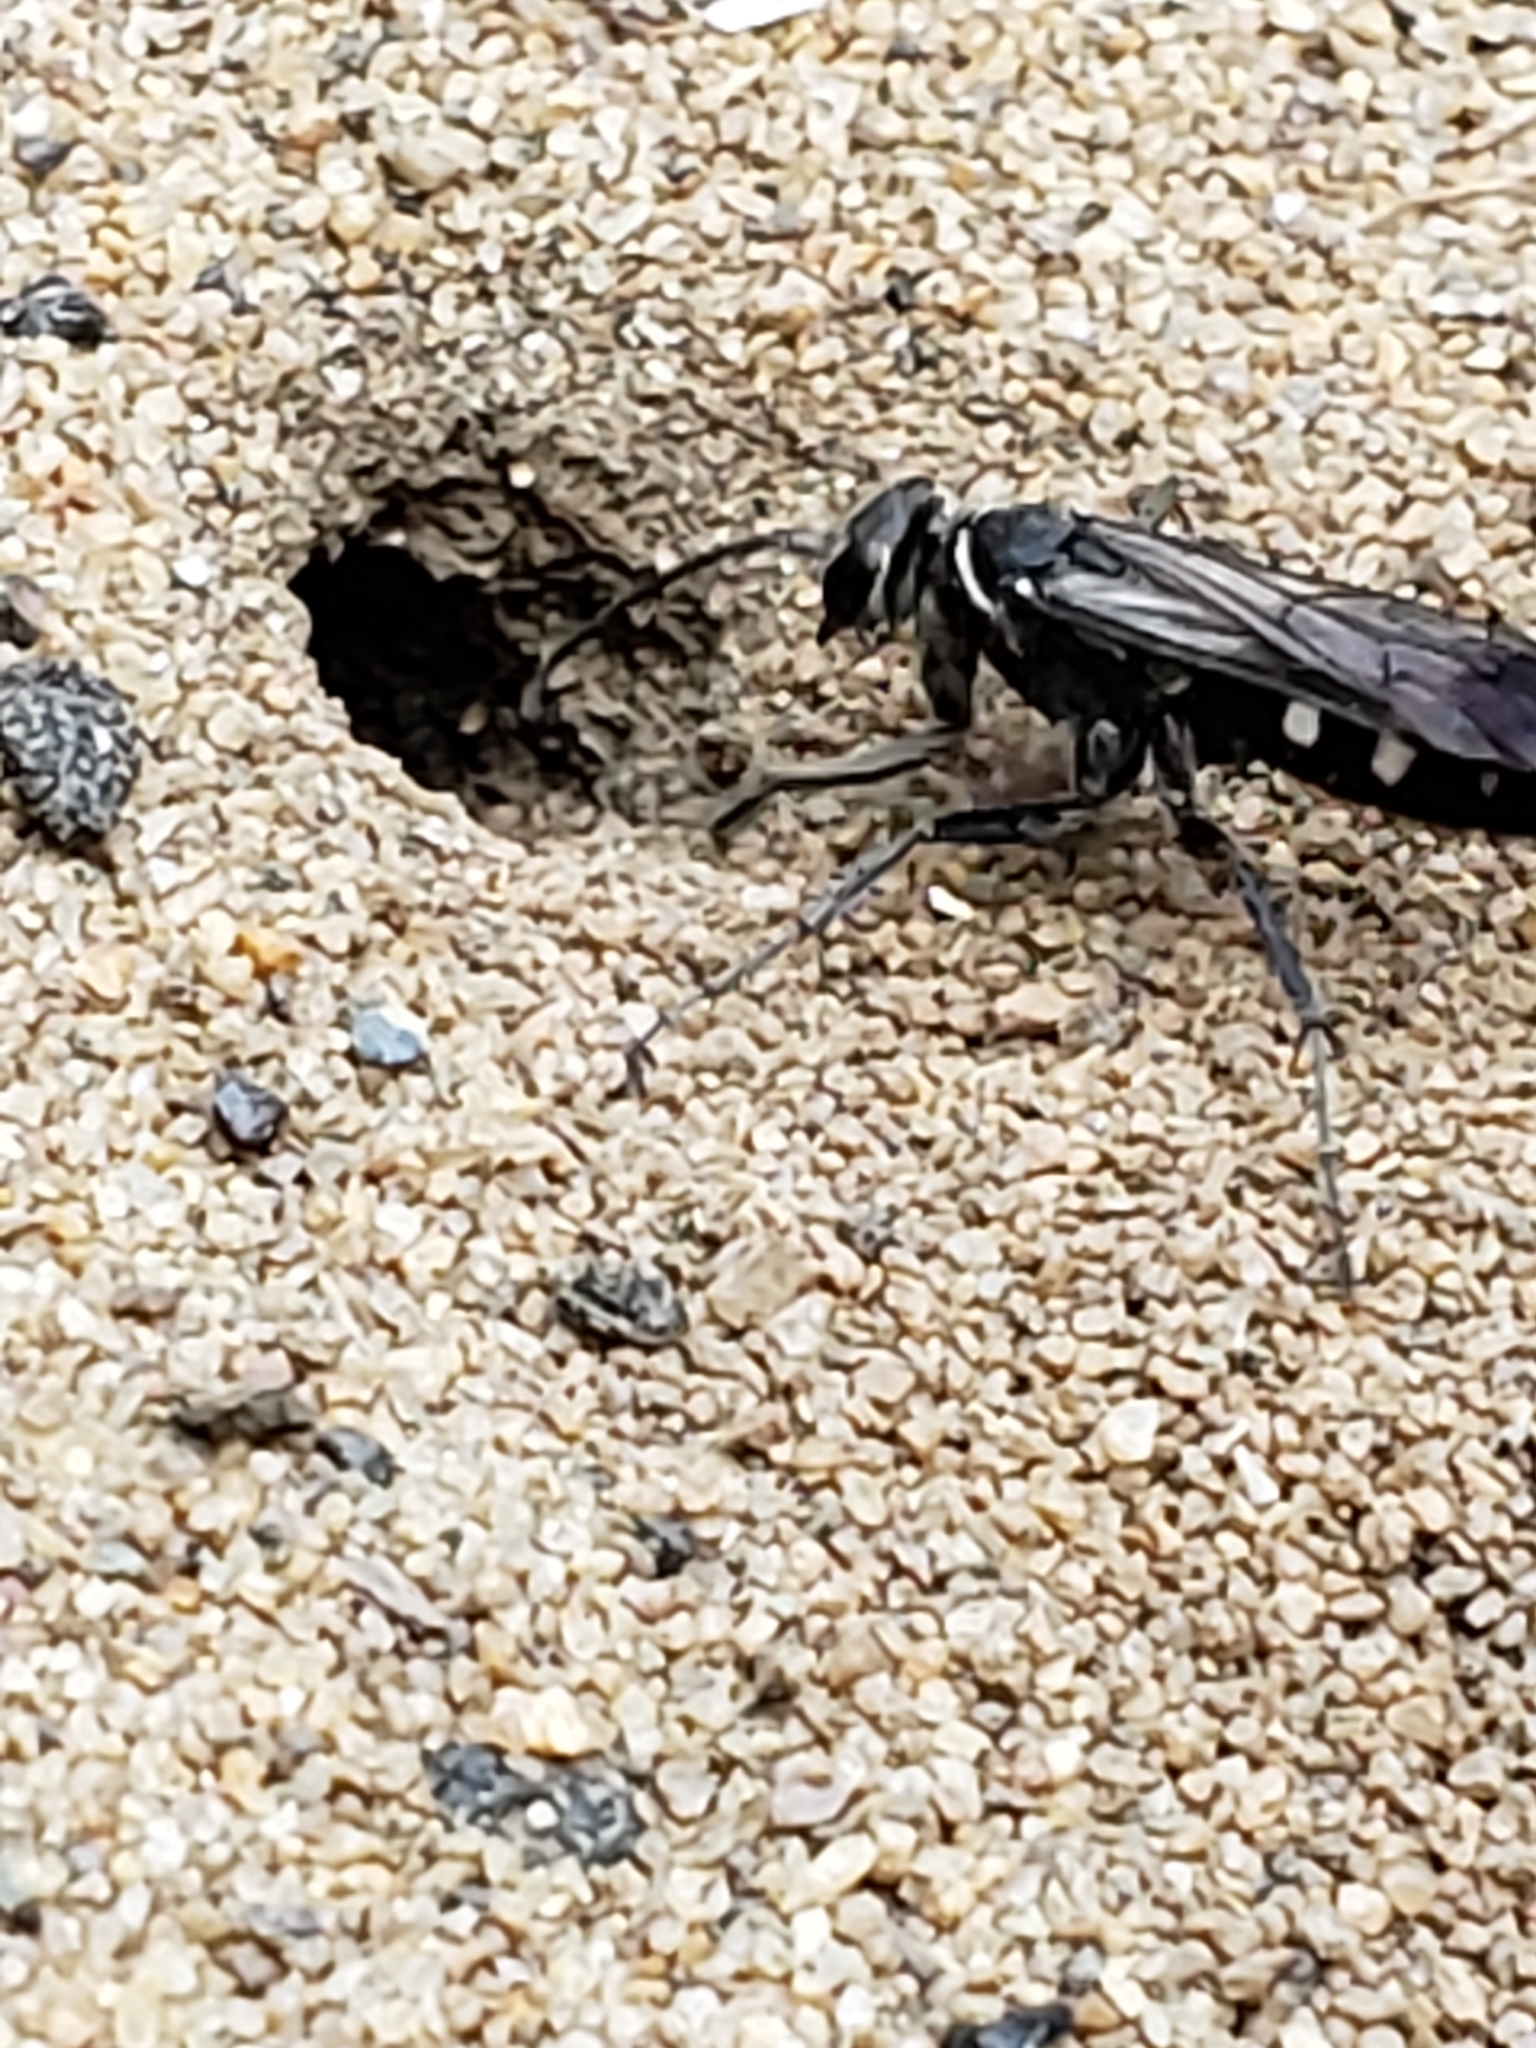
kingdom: Animalia
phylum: Arthropoda
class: Insecta
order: Hymenoptera
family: Pompilidae
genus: Episyron
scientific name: Episyron quinquenotatus
